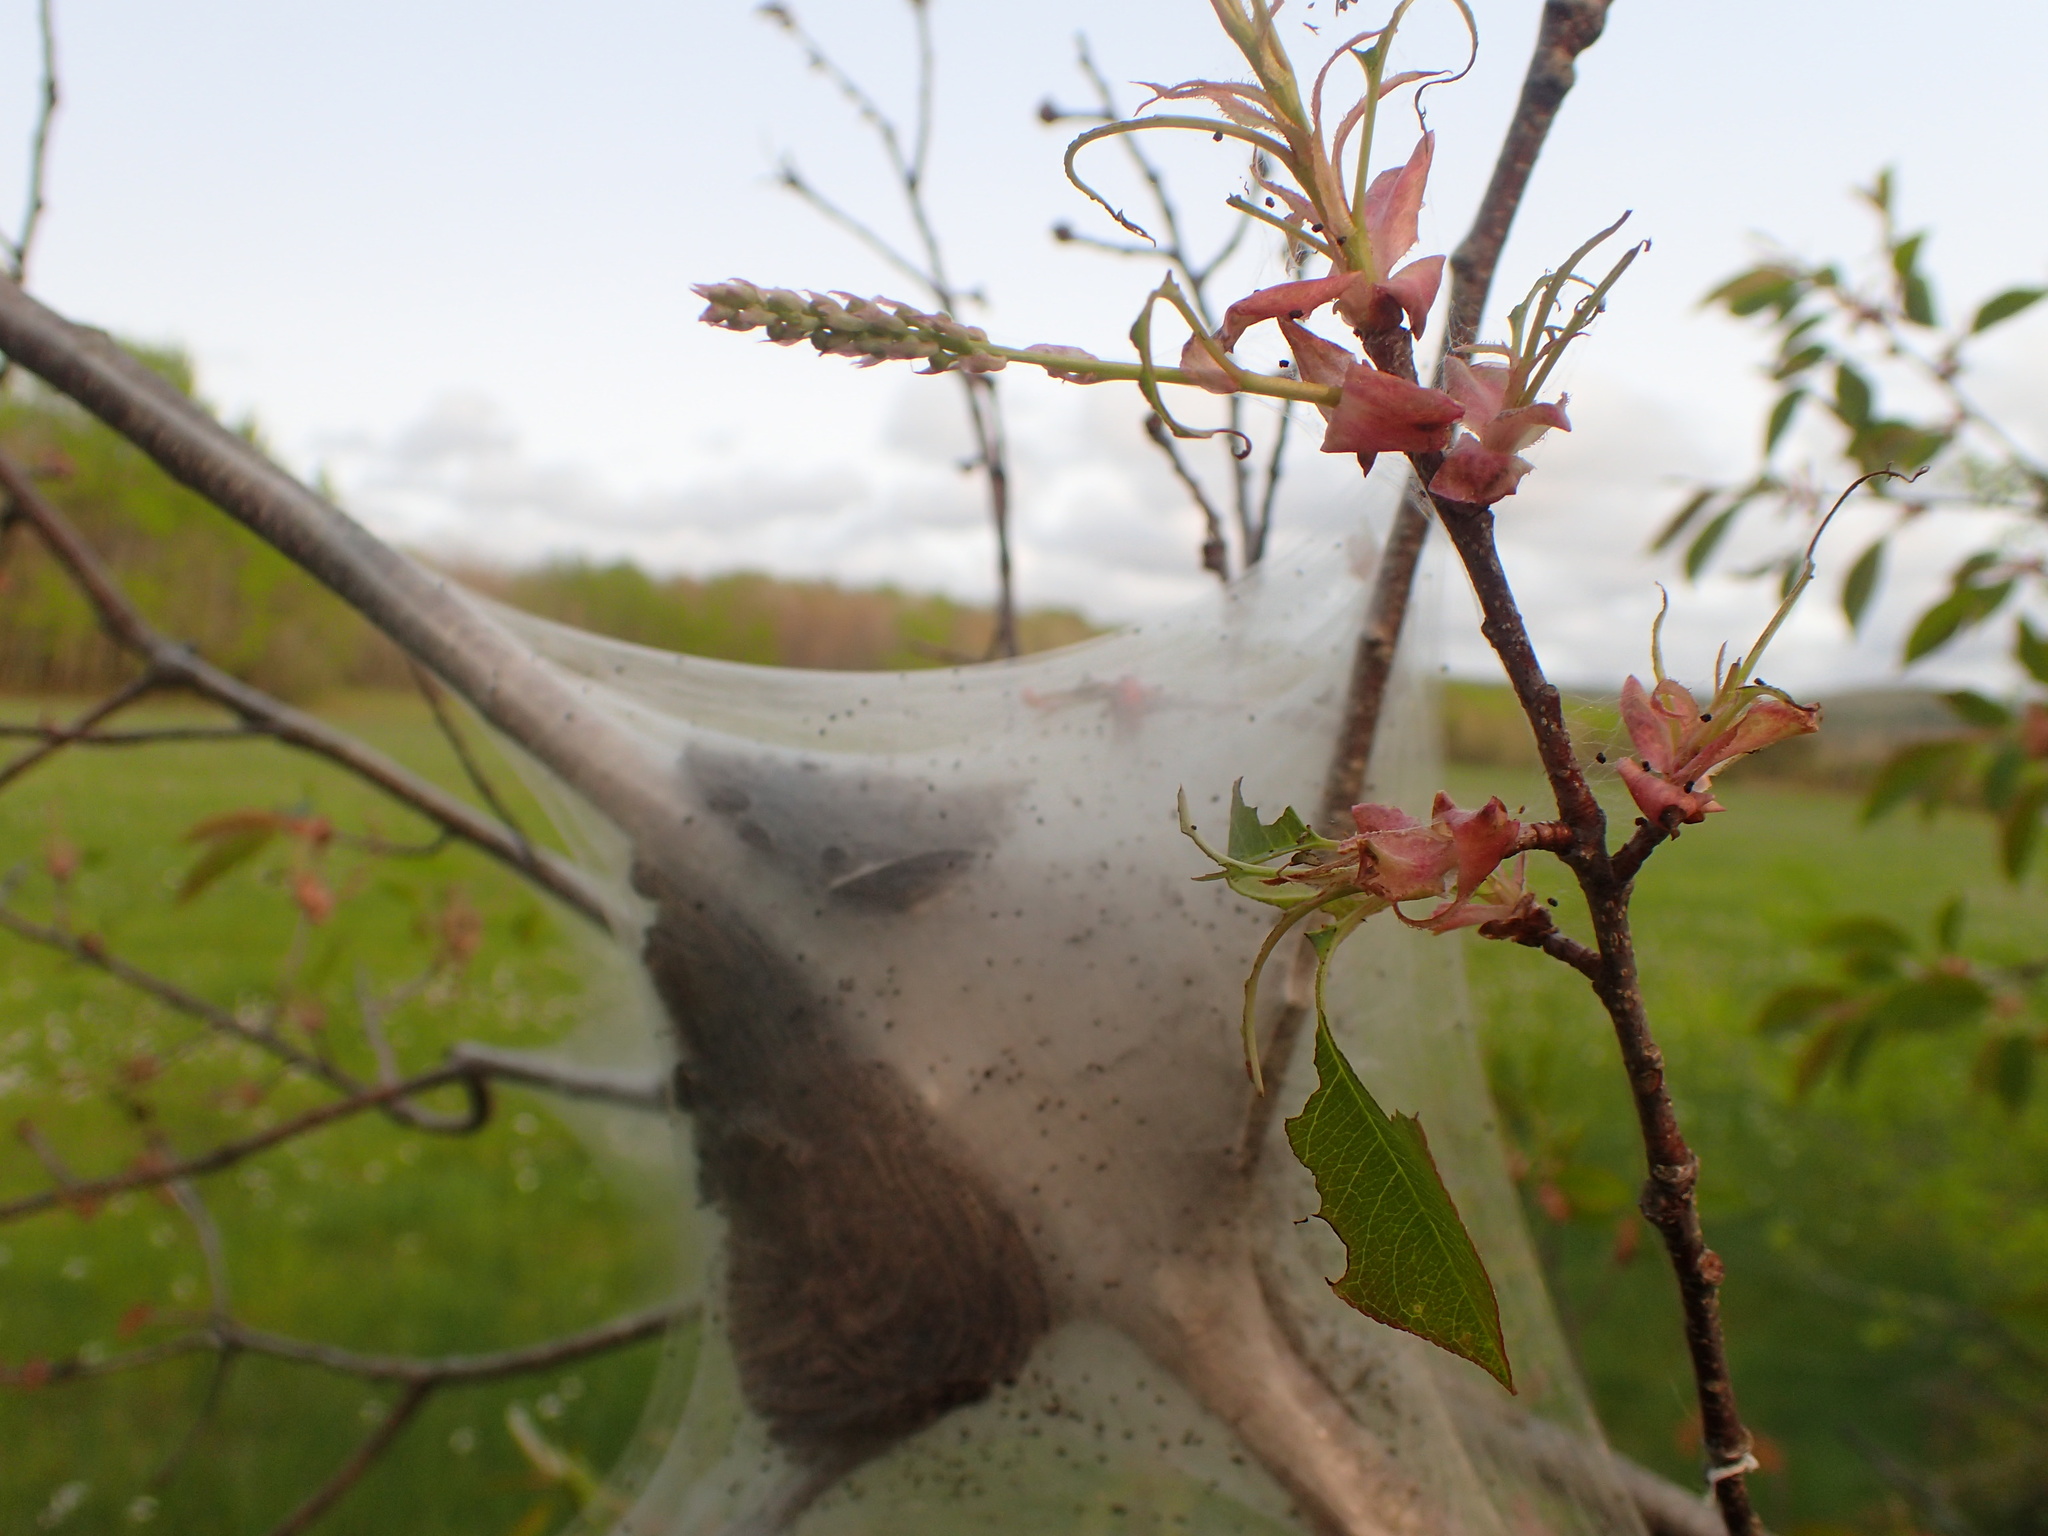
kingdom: Animalia
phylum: Arthropoda
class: Insecta
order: Lepidoptera
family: Lasiocampidae
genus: Malacosoma
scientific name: Malacosoma americana
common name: Eastern tent caterpillar moth
